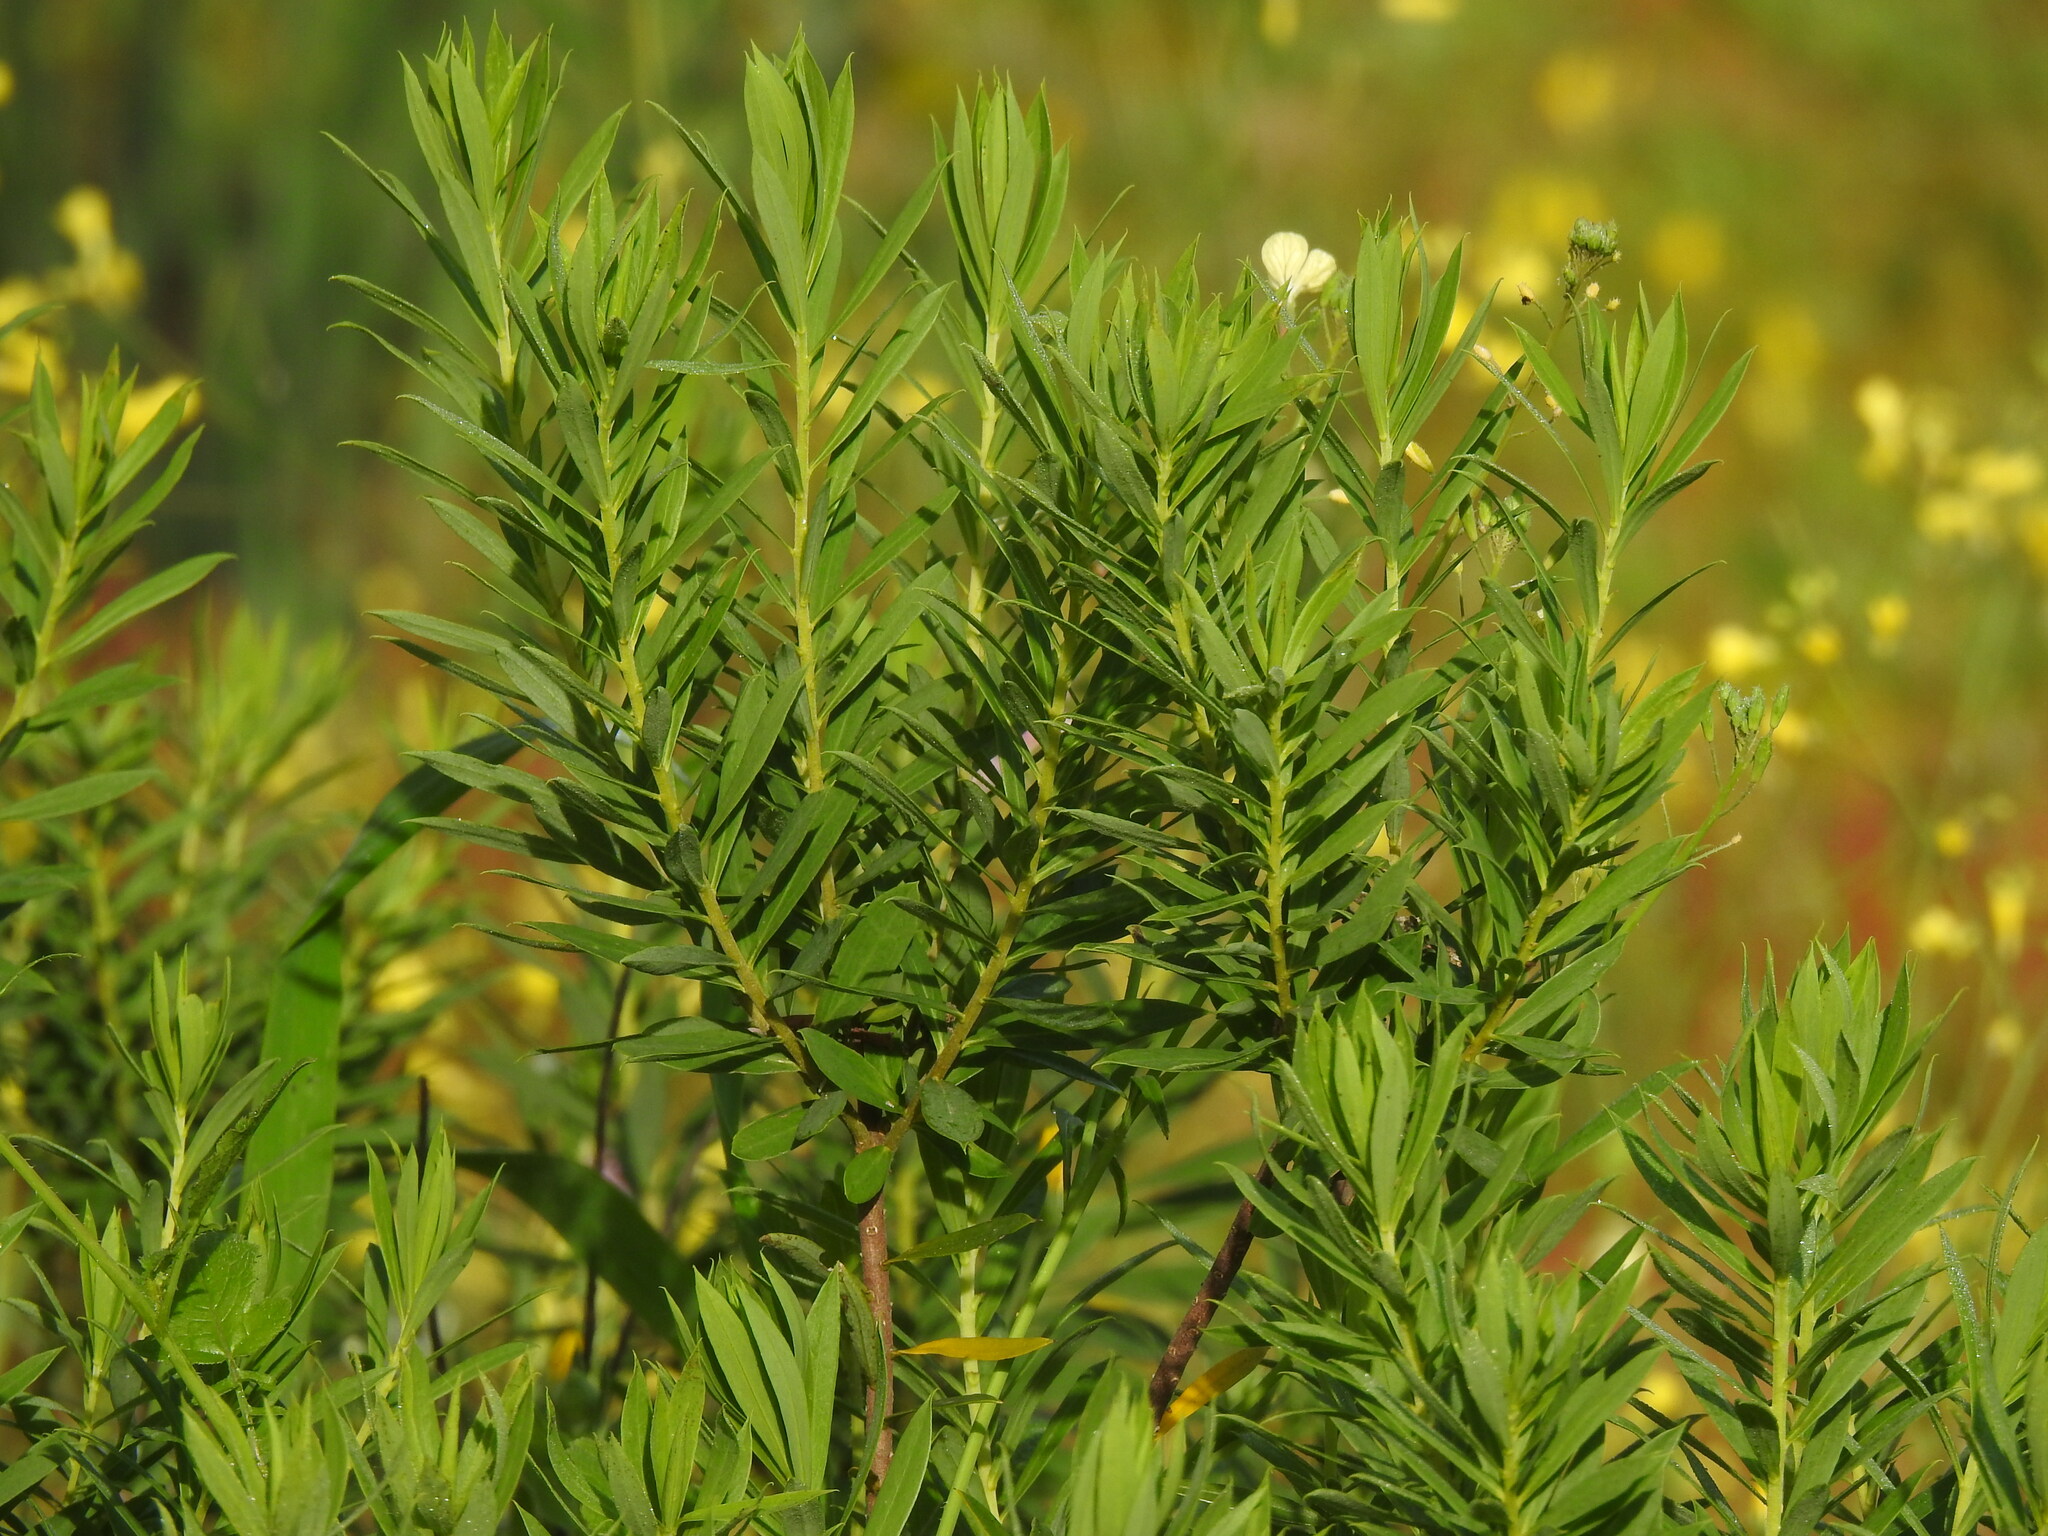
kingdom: Plantae
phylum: Tracheophyta
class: Magnoliopsida
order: Malvales
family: Thymelaeaceae
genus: Daphne
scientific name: Daphne gnidium
